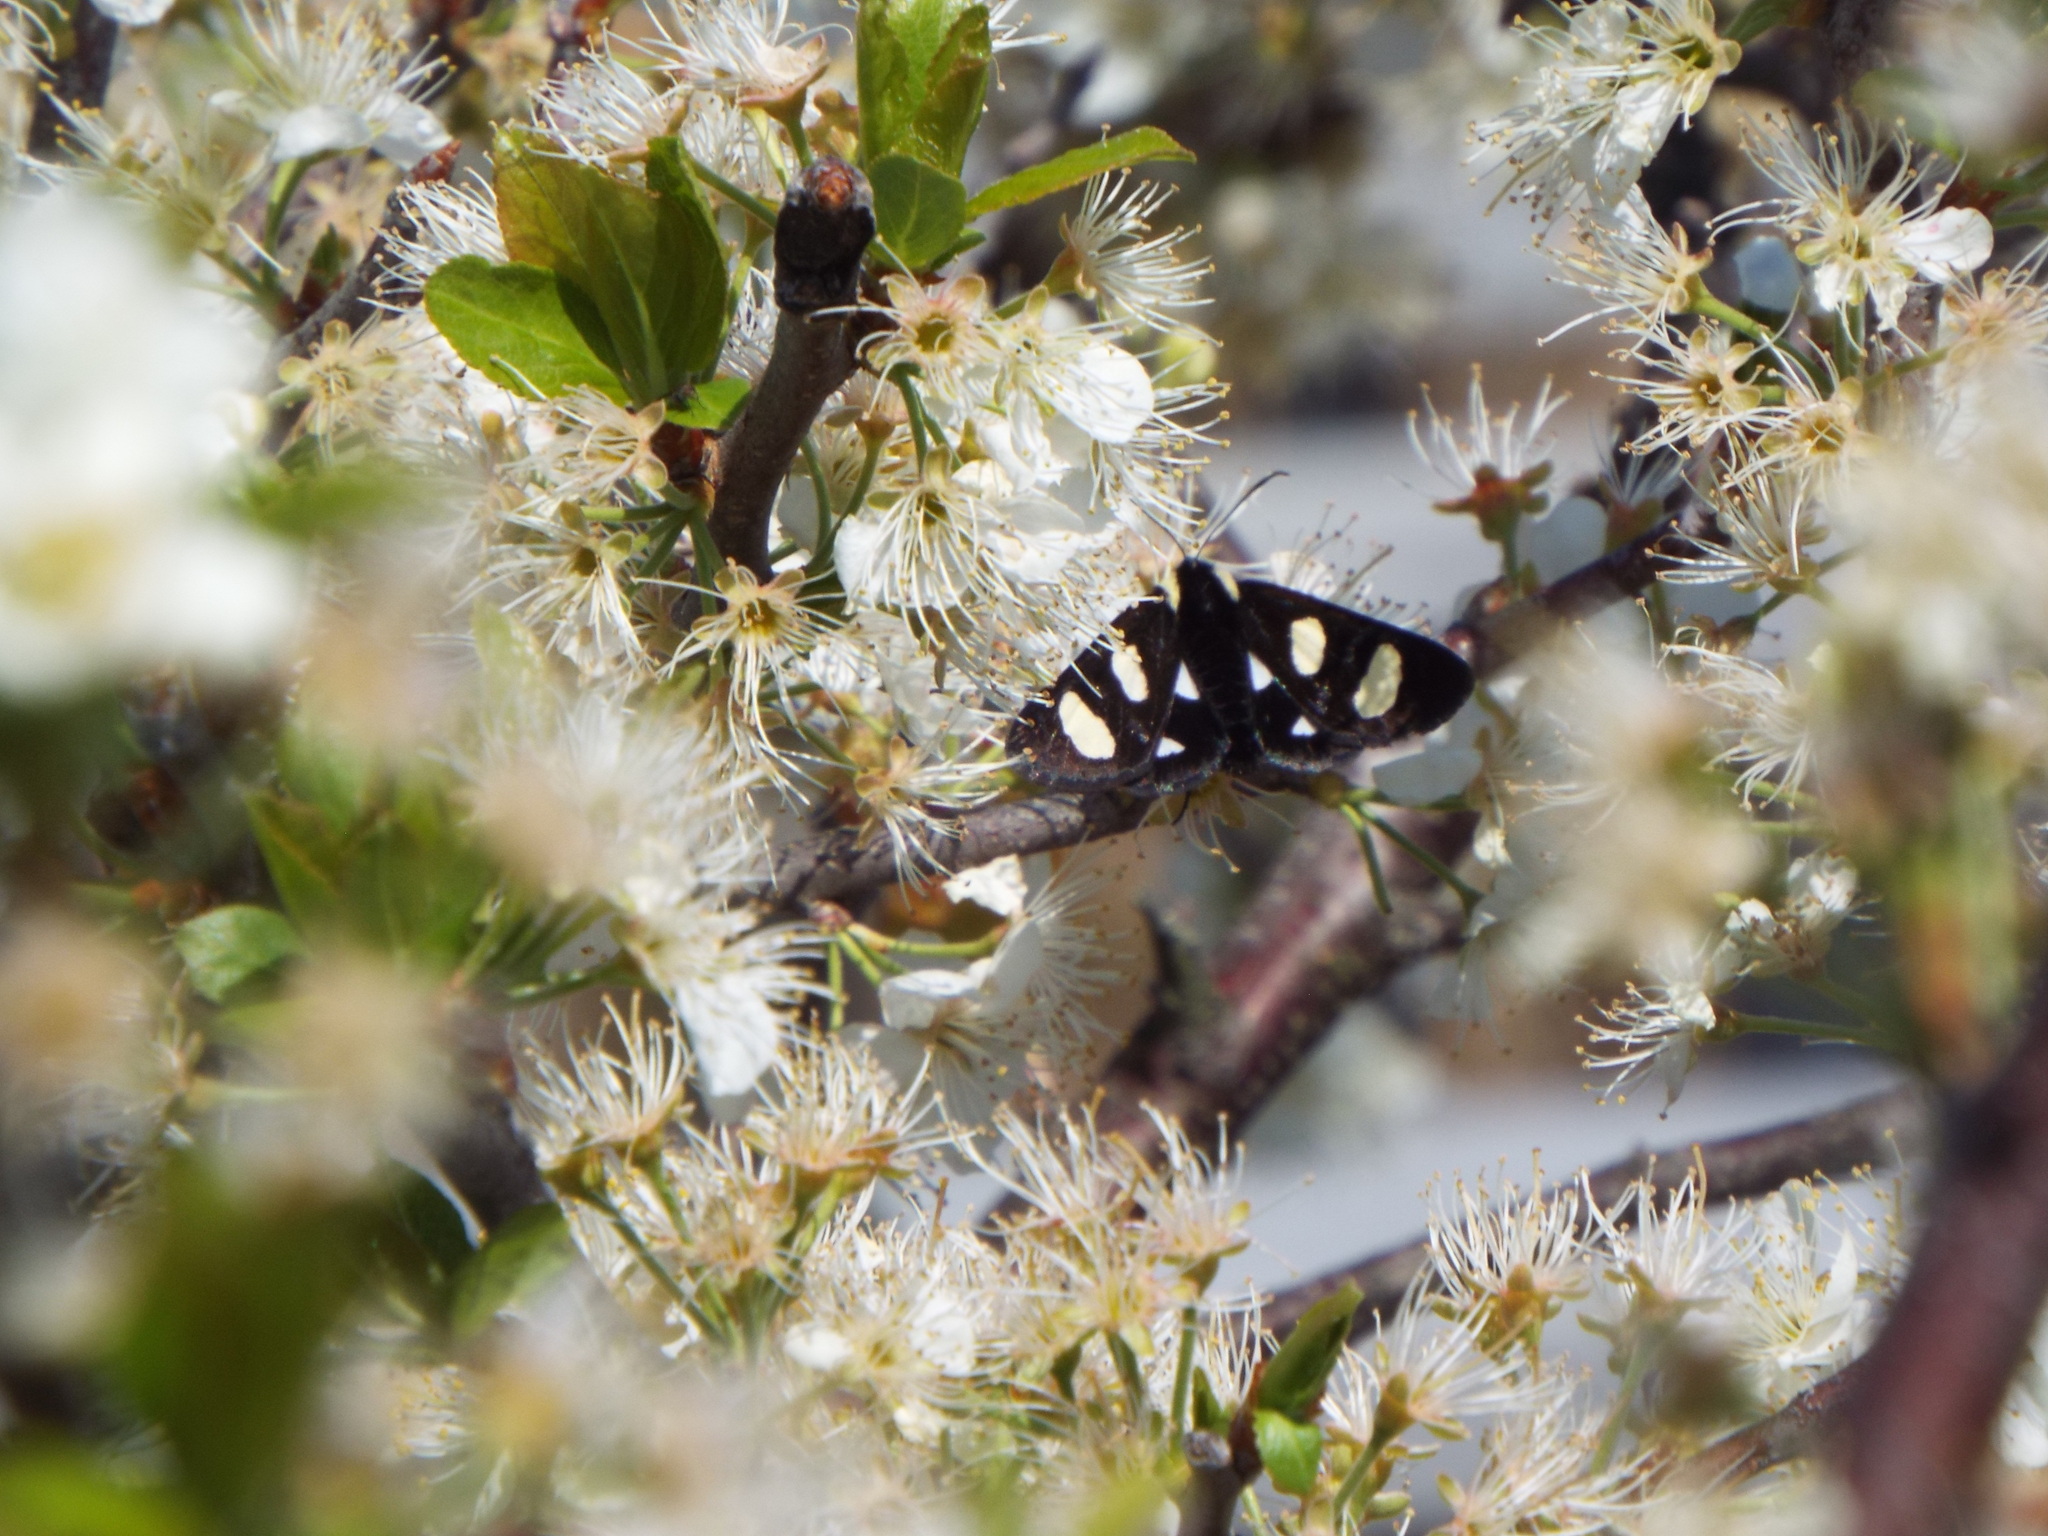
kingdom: Animalia
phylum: Arthropoda
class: Insecta
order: Lepidoptera
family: Noctuidae
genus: Alypia
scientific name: Alypia octomaculata
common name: Eight-spotted forester
